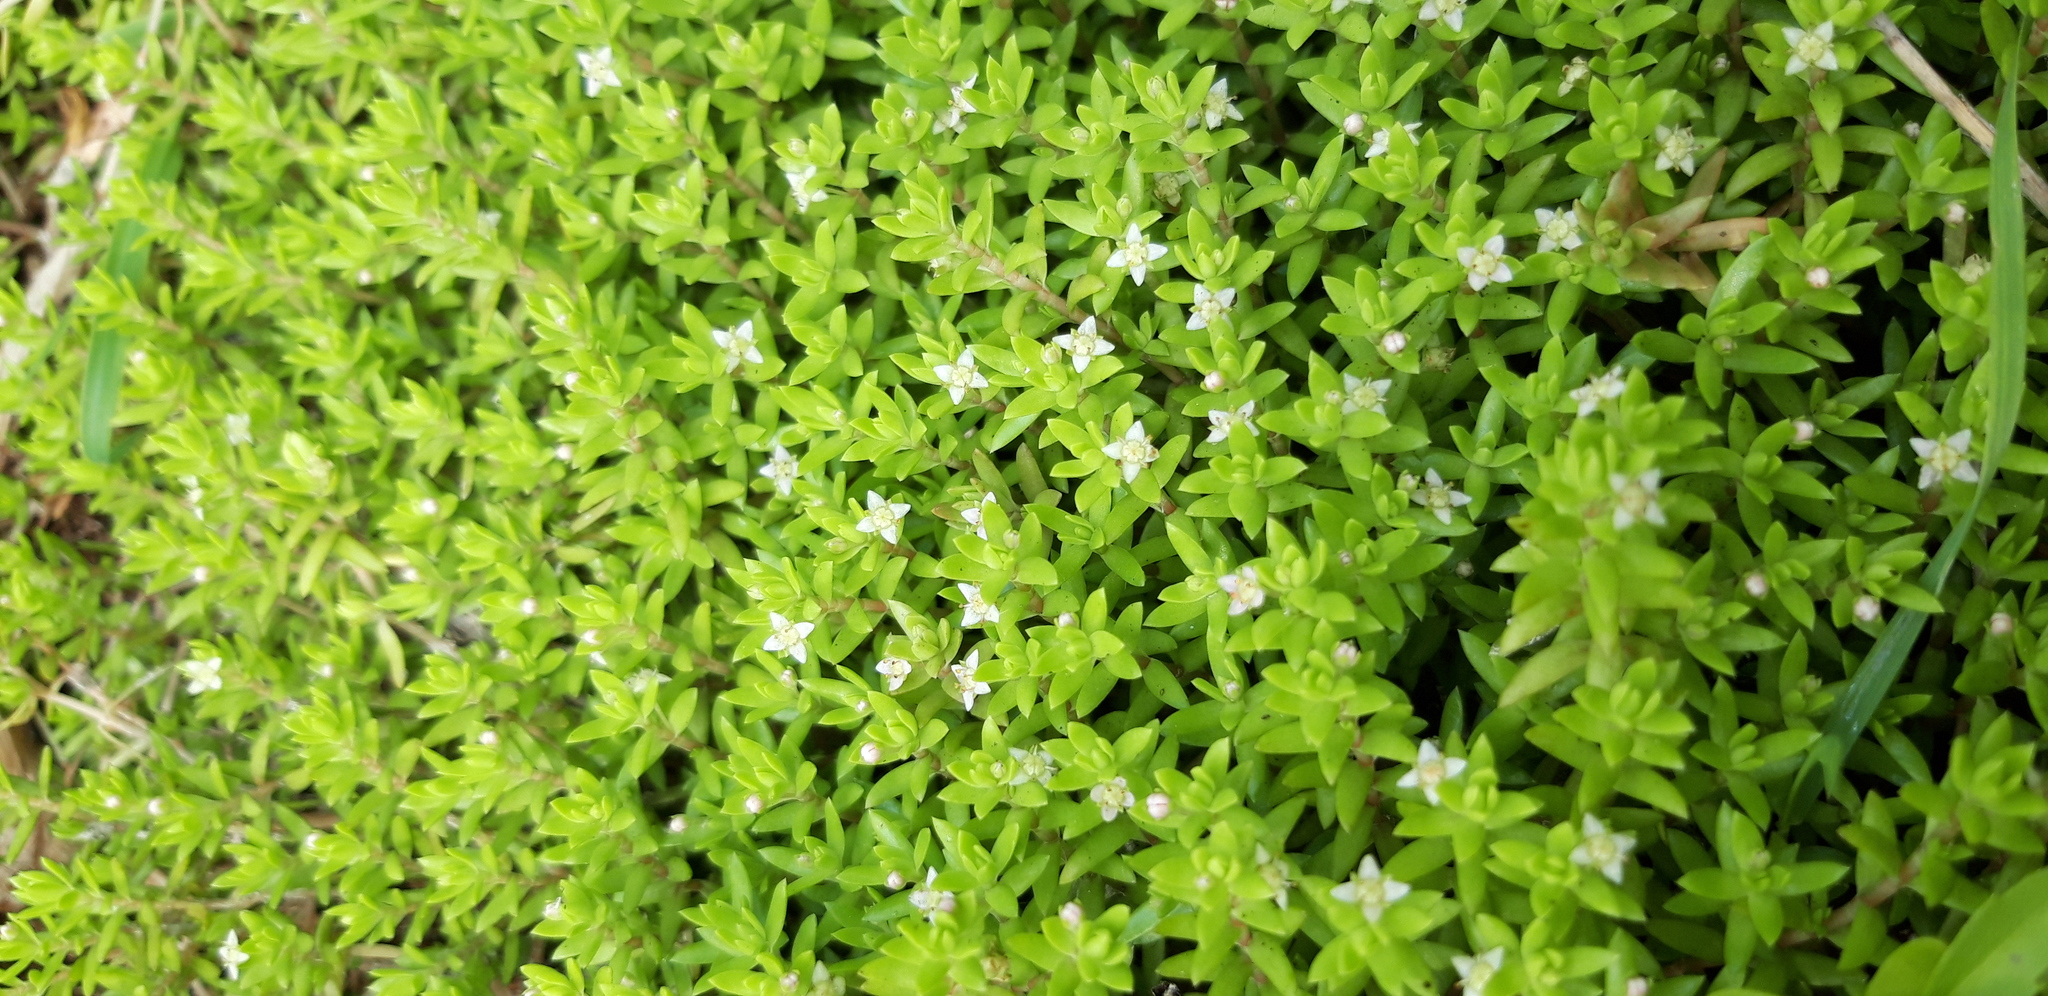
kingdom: Plantae
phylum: Tracheophyta
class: Magnoliopsida
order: Saxifragales
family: Crassulaceae
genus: Crassula
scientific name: Crassula helmsii
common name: New zealand pigmyweed
